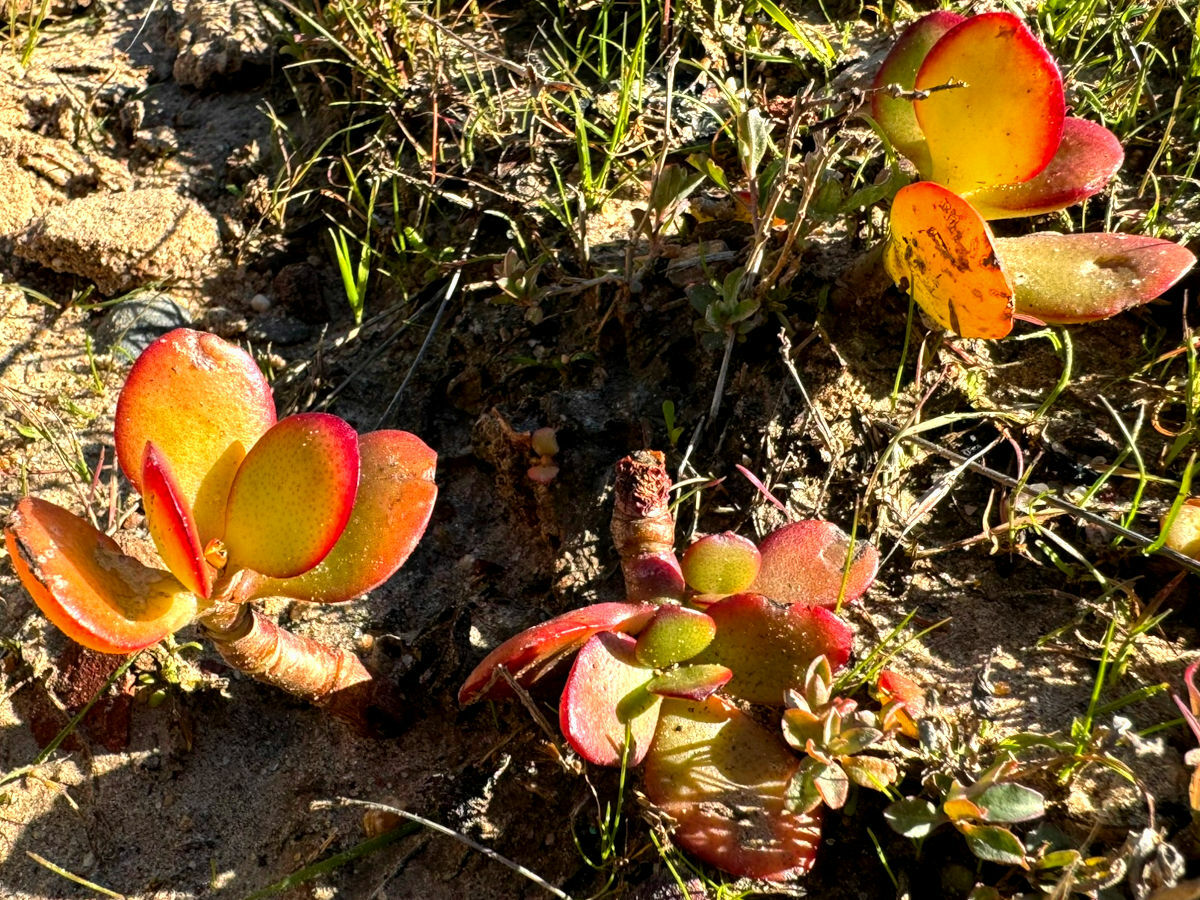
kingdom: Plantae
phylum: Tracheophyta
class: Magnoliopsida
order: Saxifragales
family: Crassulaceae
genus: Crassula
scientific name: Crassula ovata
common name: Jade plant
